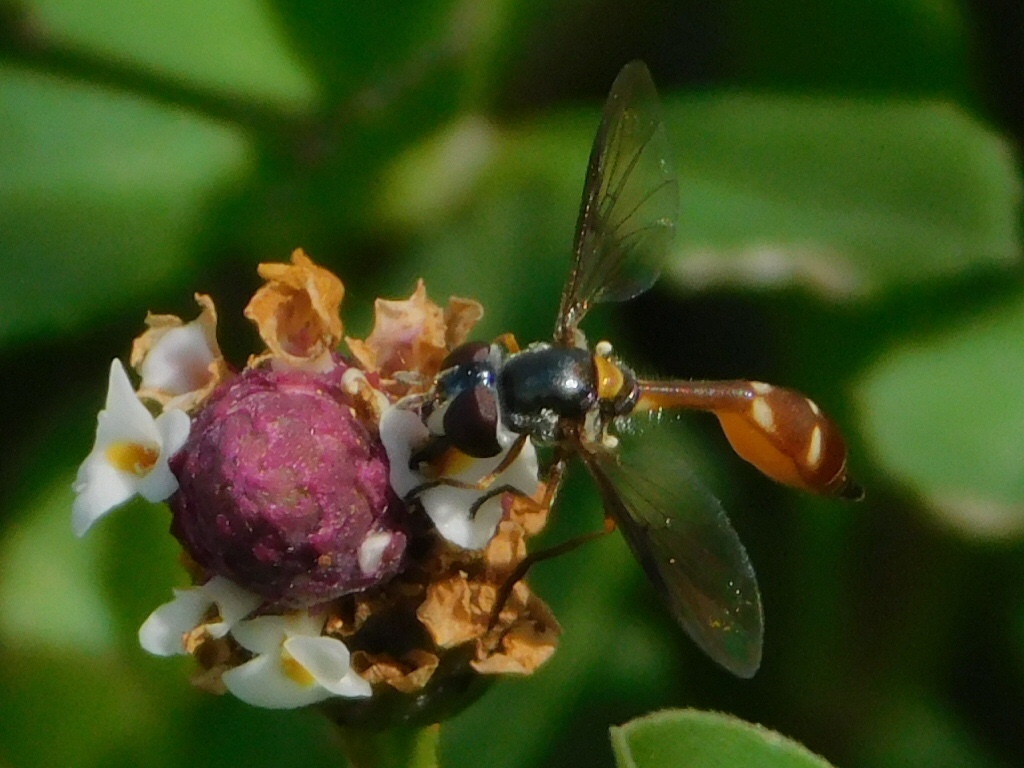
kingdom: Animalia
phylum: Arthropoda
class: Insecta
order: Diptera
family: Syrphidae
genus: Dioprosopa
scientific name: Dioprosopa clavatus
